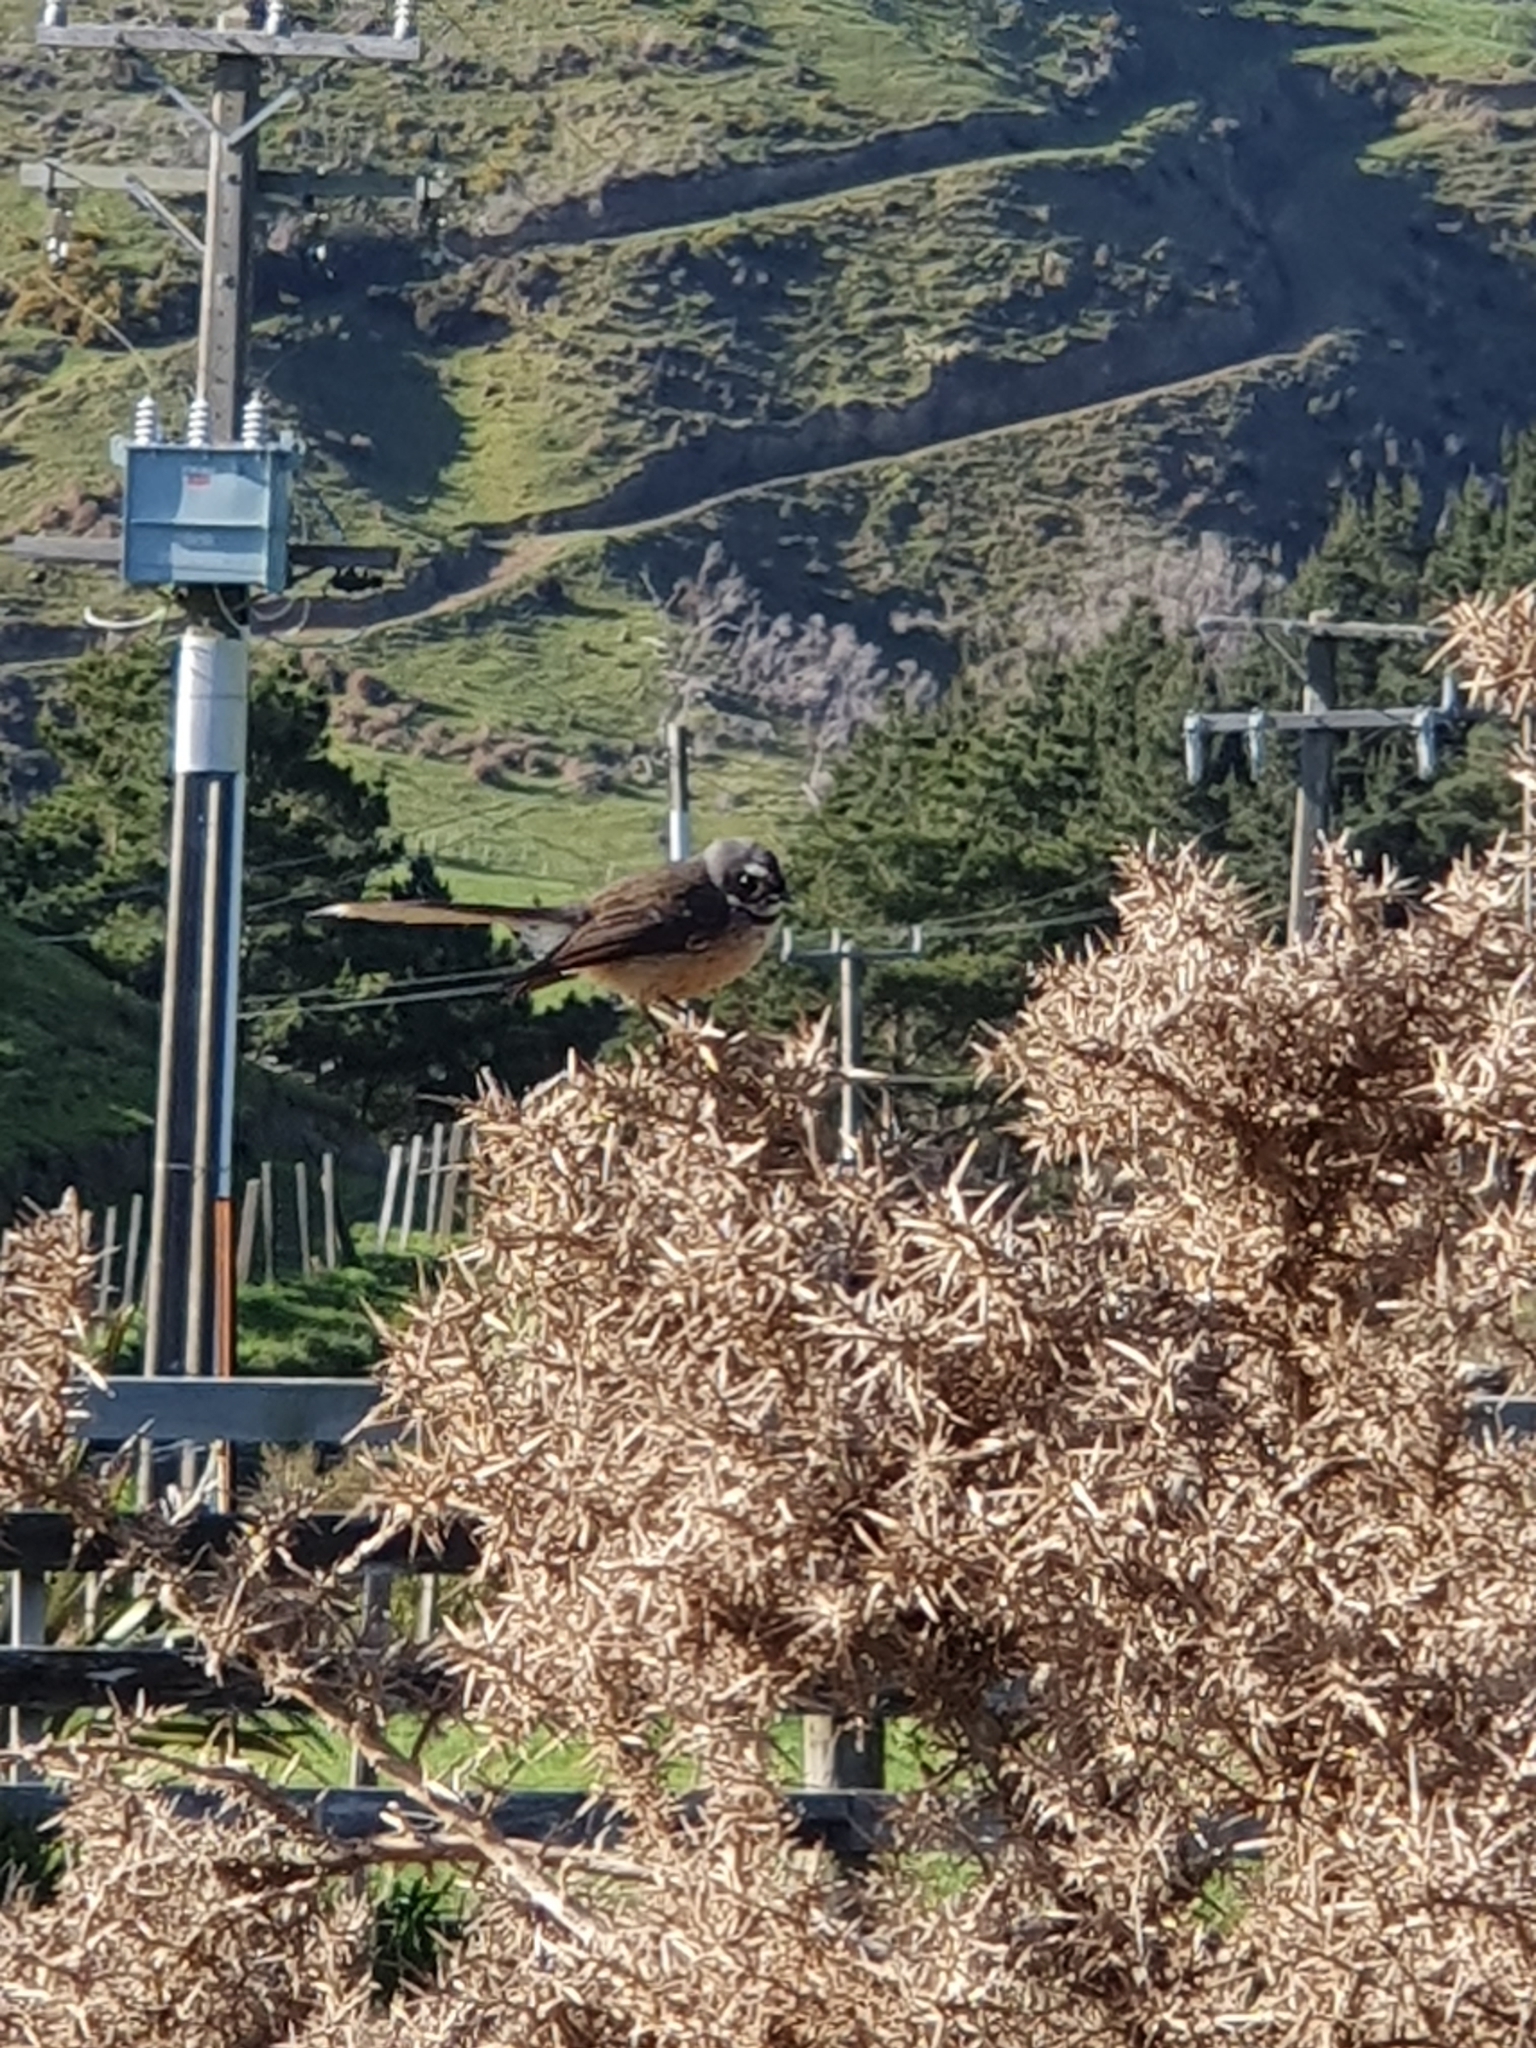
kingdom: Animalia
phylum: Chordata
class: Aves
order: Passeriformes
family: Rhipiduridae
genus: Rhipidura
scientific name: Rhipidura fuliginosa
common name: New zealand fantail
